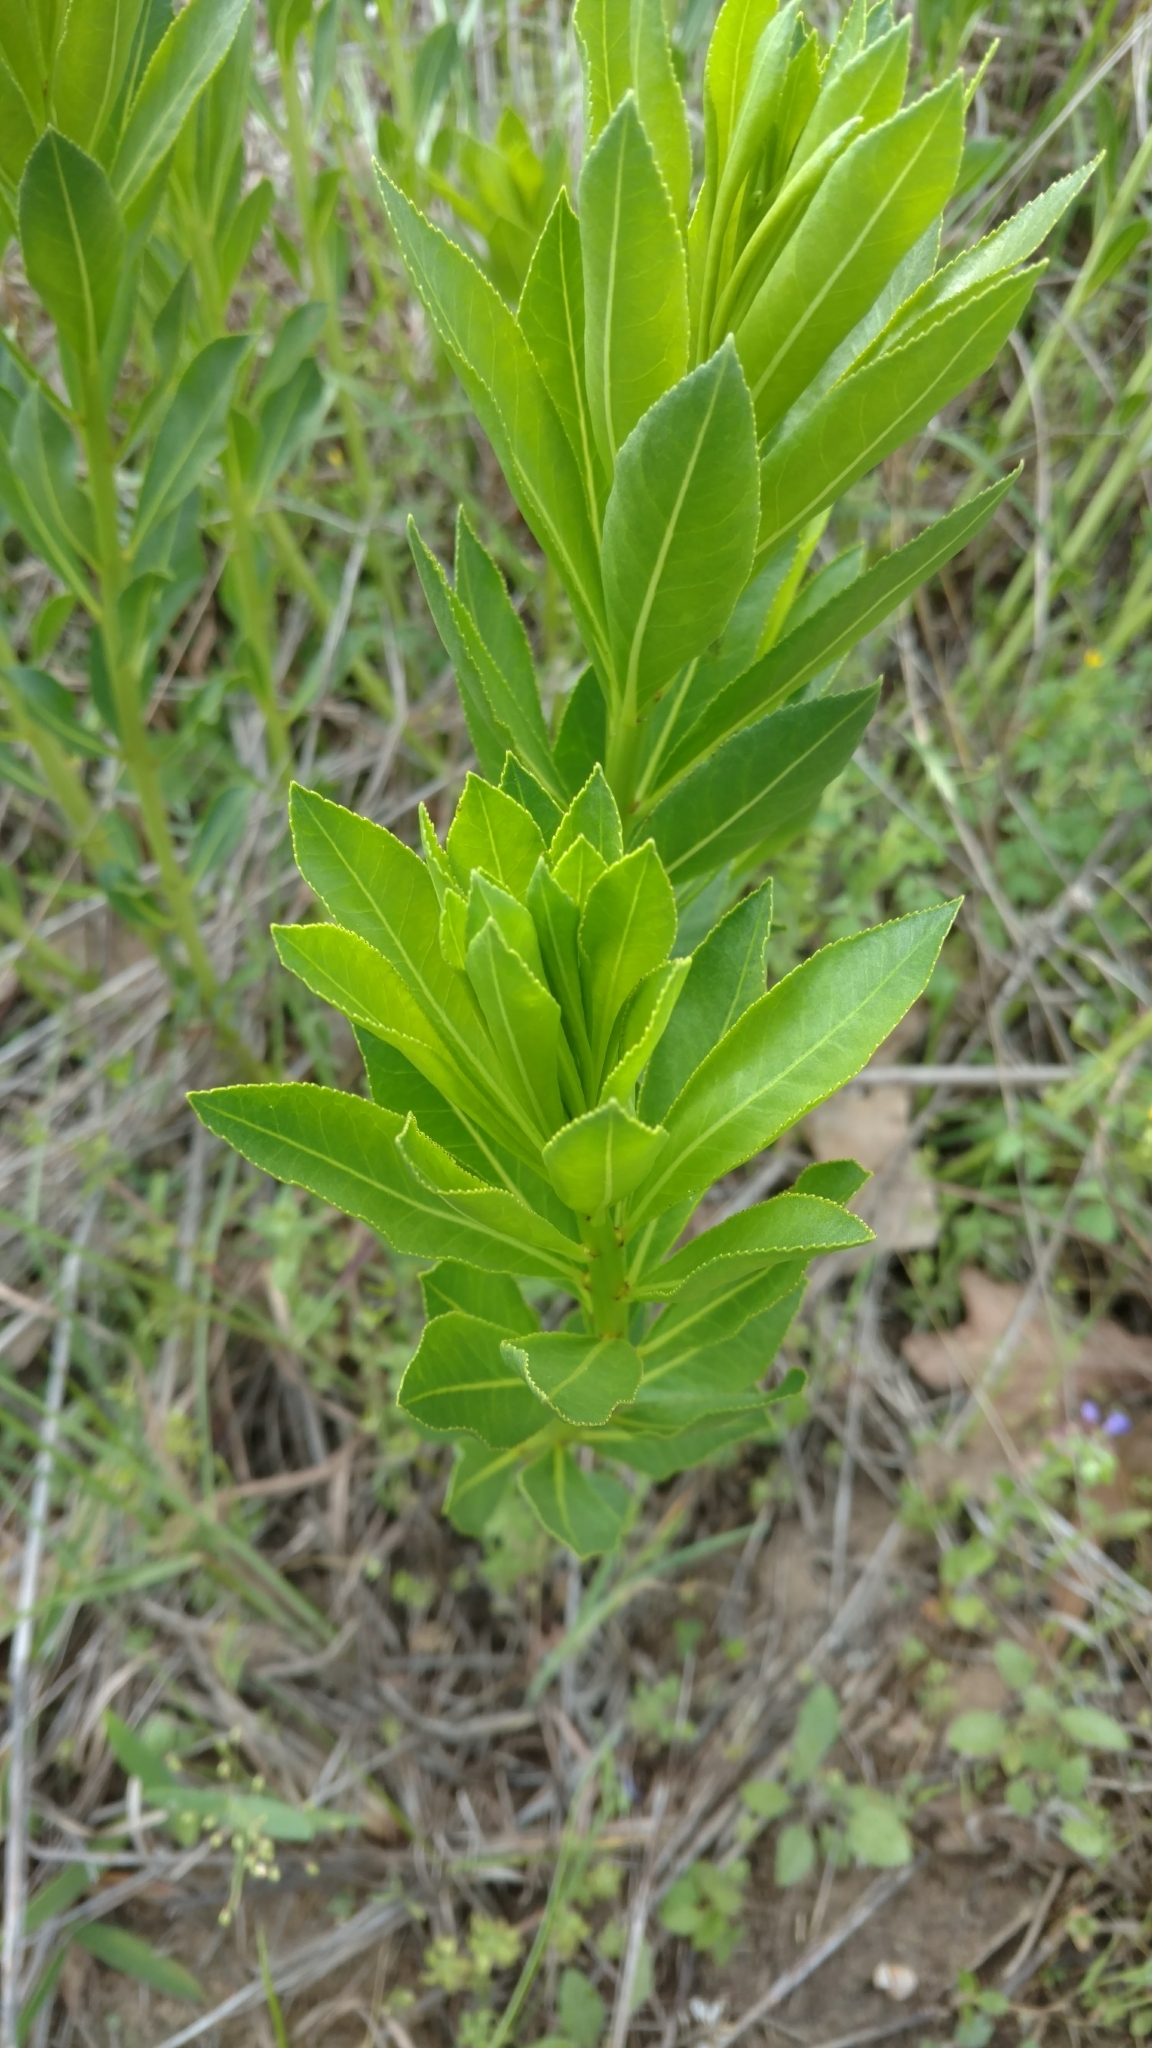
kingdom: Plantae
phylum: Tracheophyta
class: Magnoliopsida
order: Malpighiales
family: Euphorbiaceae
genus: Stillingia
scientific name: Stillingia sylvatica
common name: Queen's-delight
